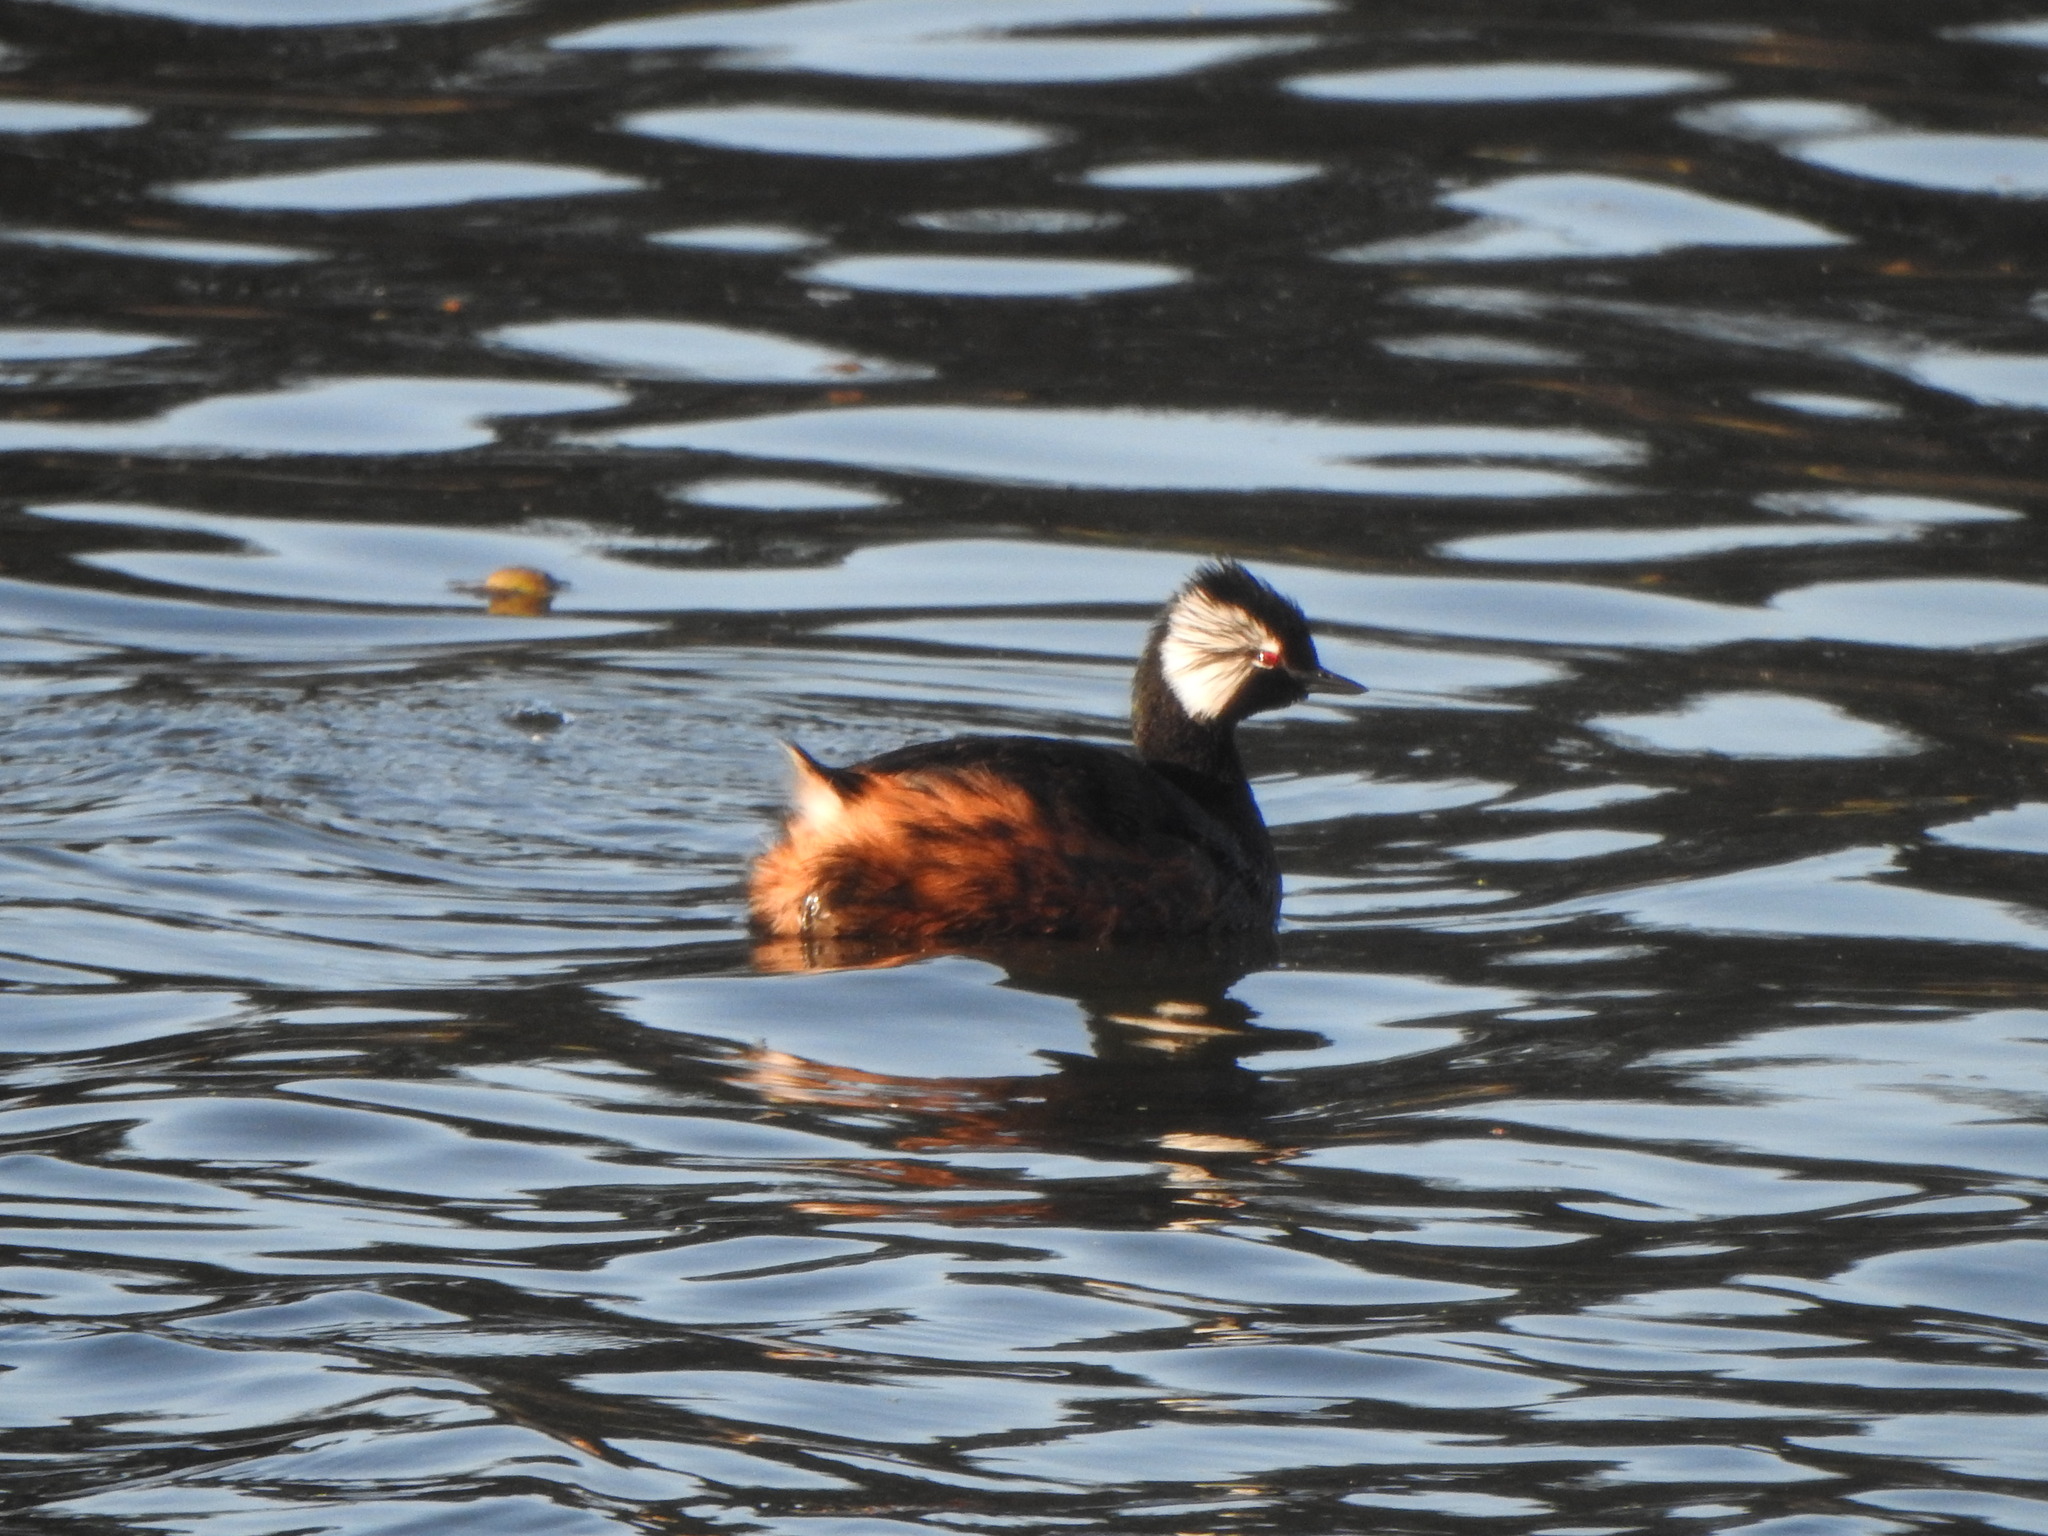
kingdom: Animalia
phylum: Chordata
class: Aves
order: Podicipediformes
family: Podicipedidae
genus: Rollandia
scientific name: Rollandia rolland
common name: White-tufted grebe
